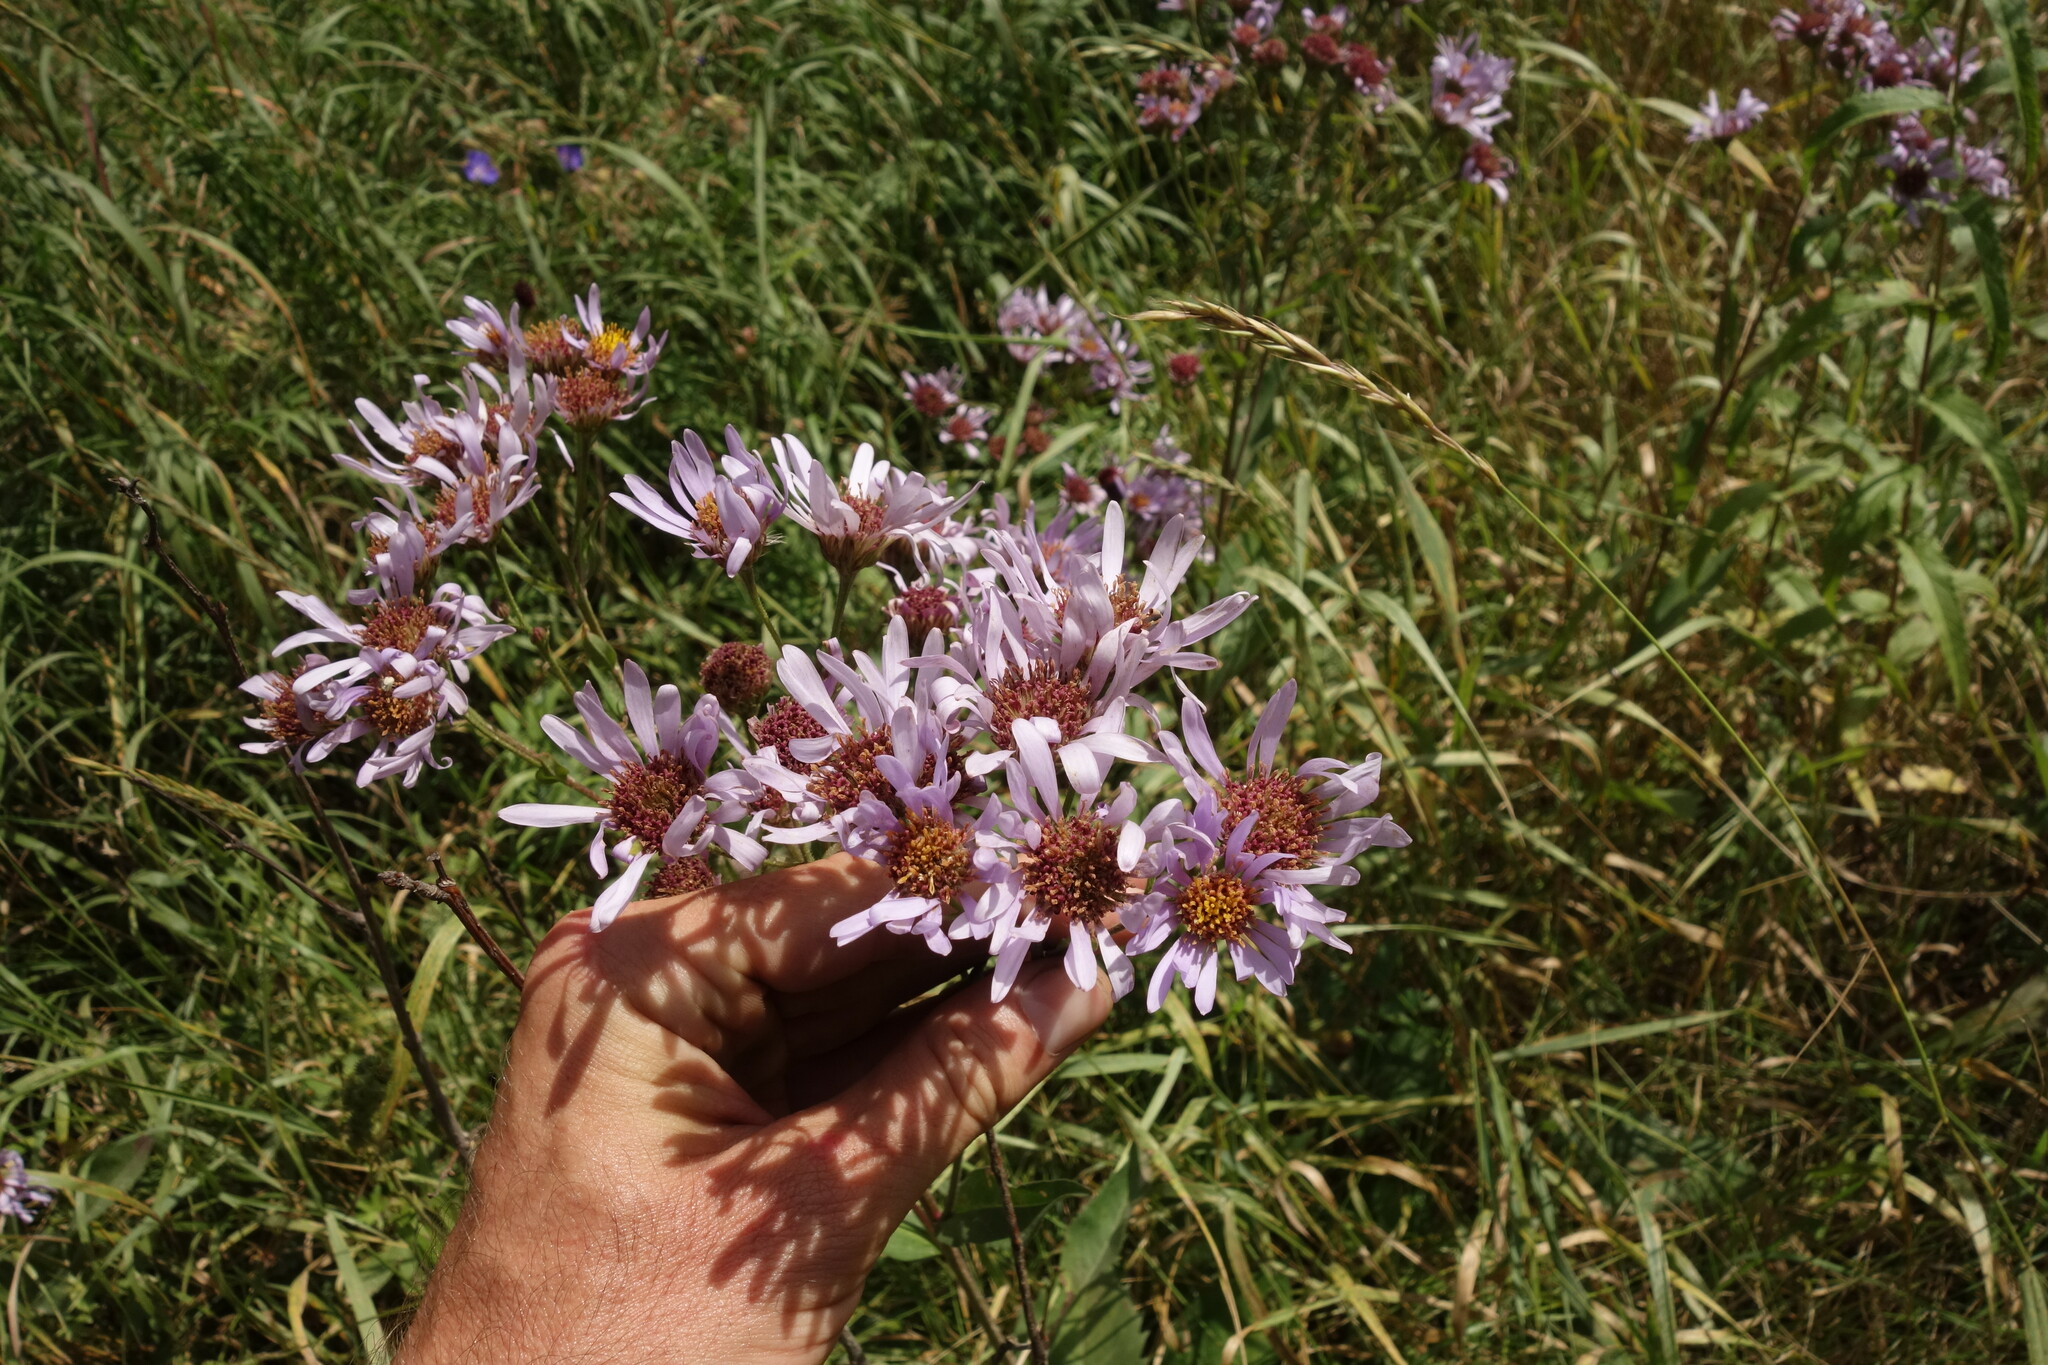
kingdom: Plantae
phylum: Tracheophyta
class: Magnoliopsida
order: Asterales
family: Asteraceae
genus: Aster
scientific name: Aster tataricus
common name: Tatarian aster
